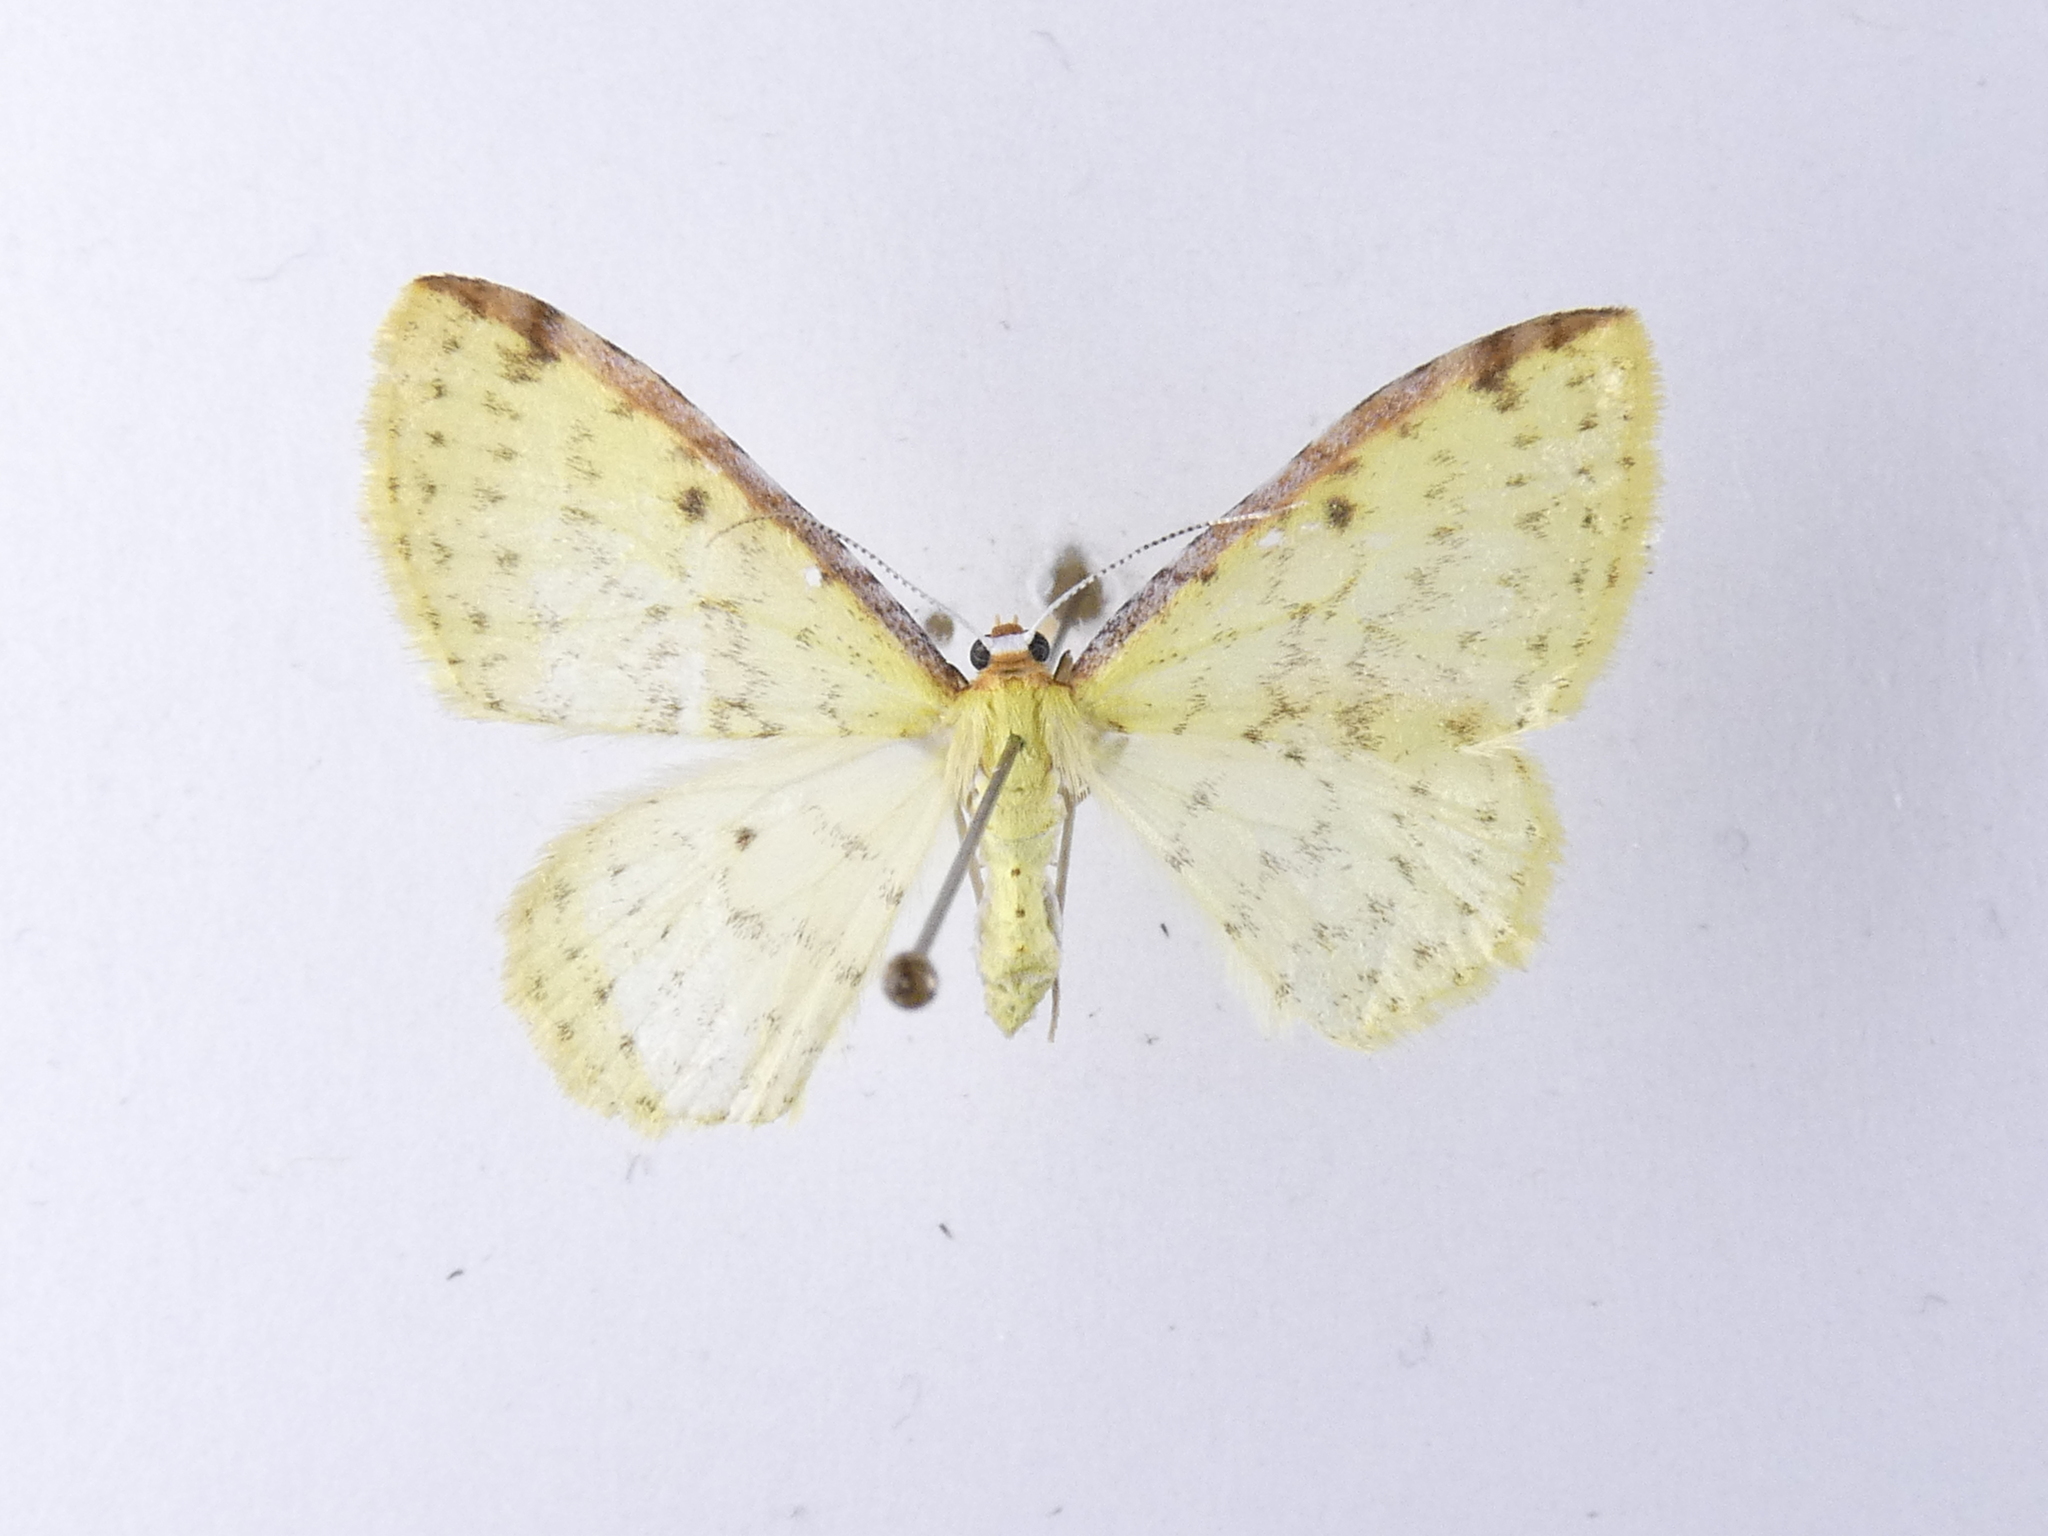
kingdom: Animalia
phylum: Arthropoda
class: Insecta
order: Lepidoptera
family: Geometridae
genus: Epiphryne
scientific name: Epiphryne undosata
